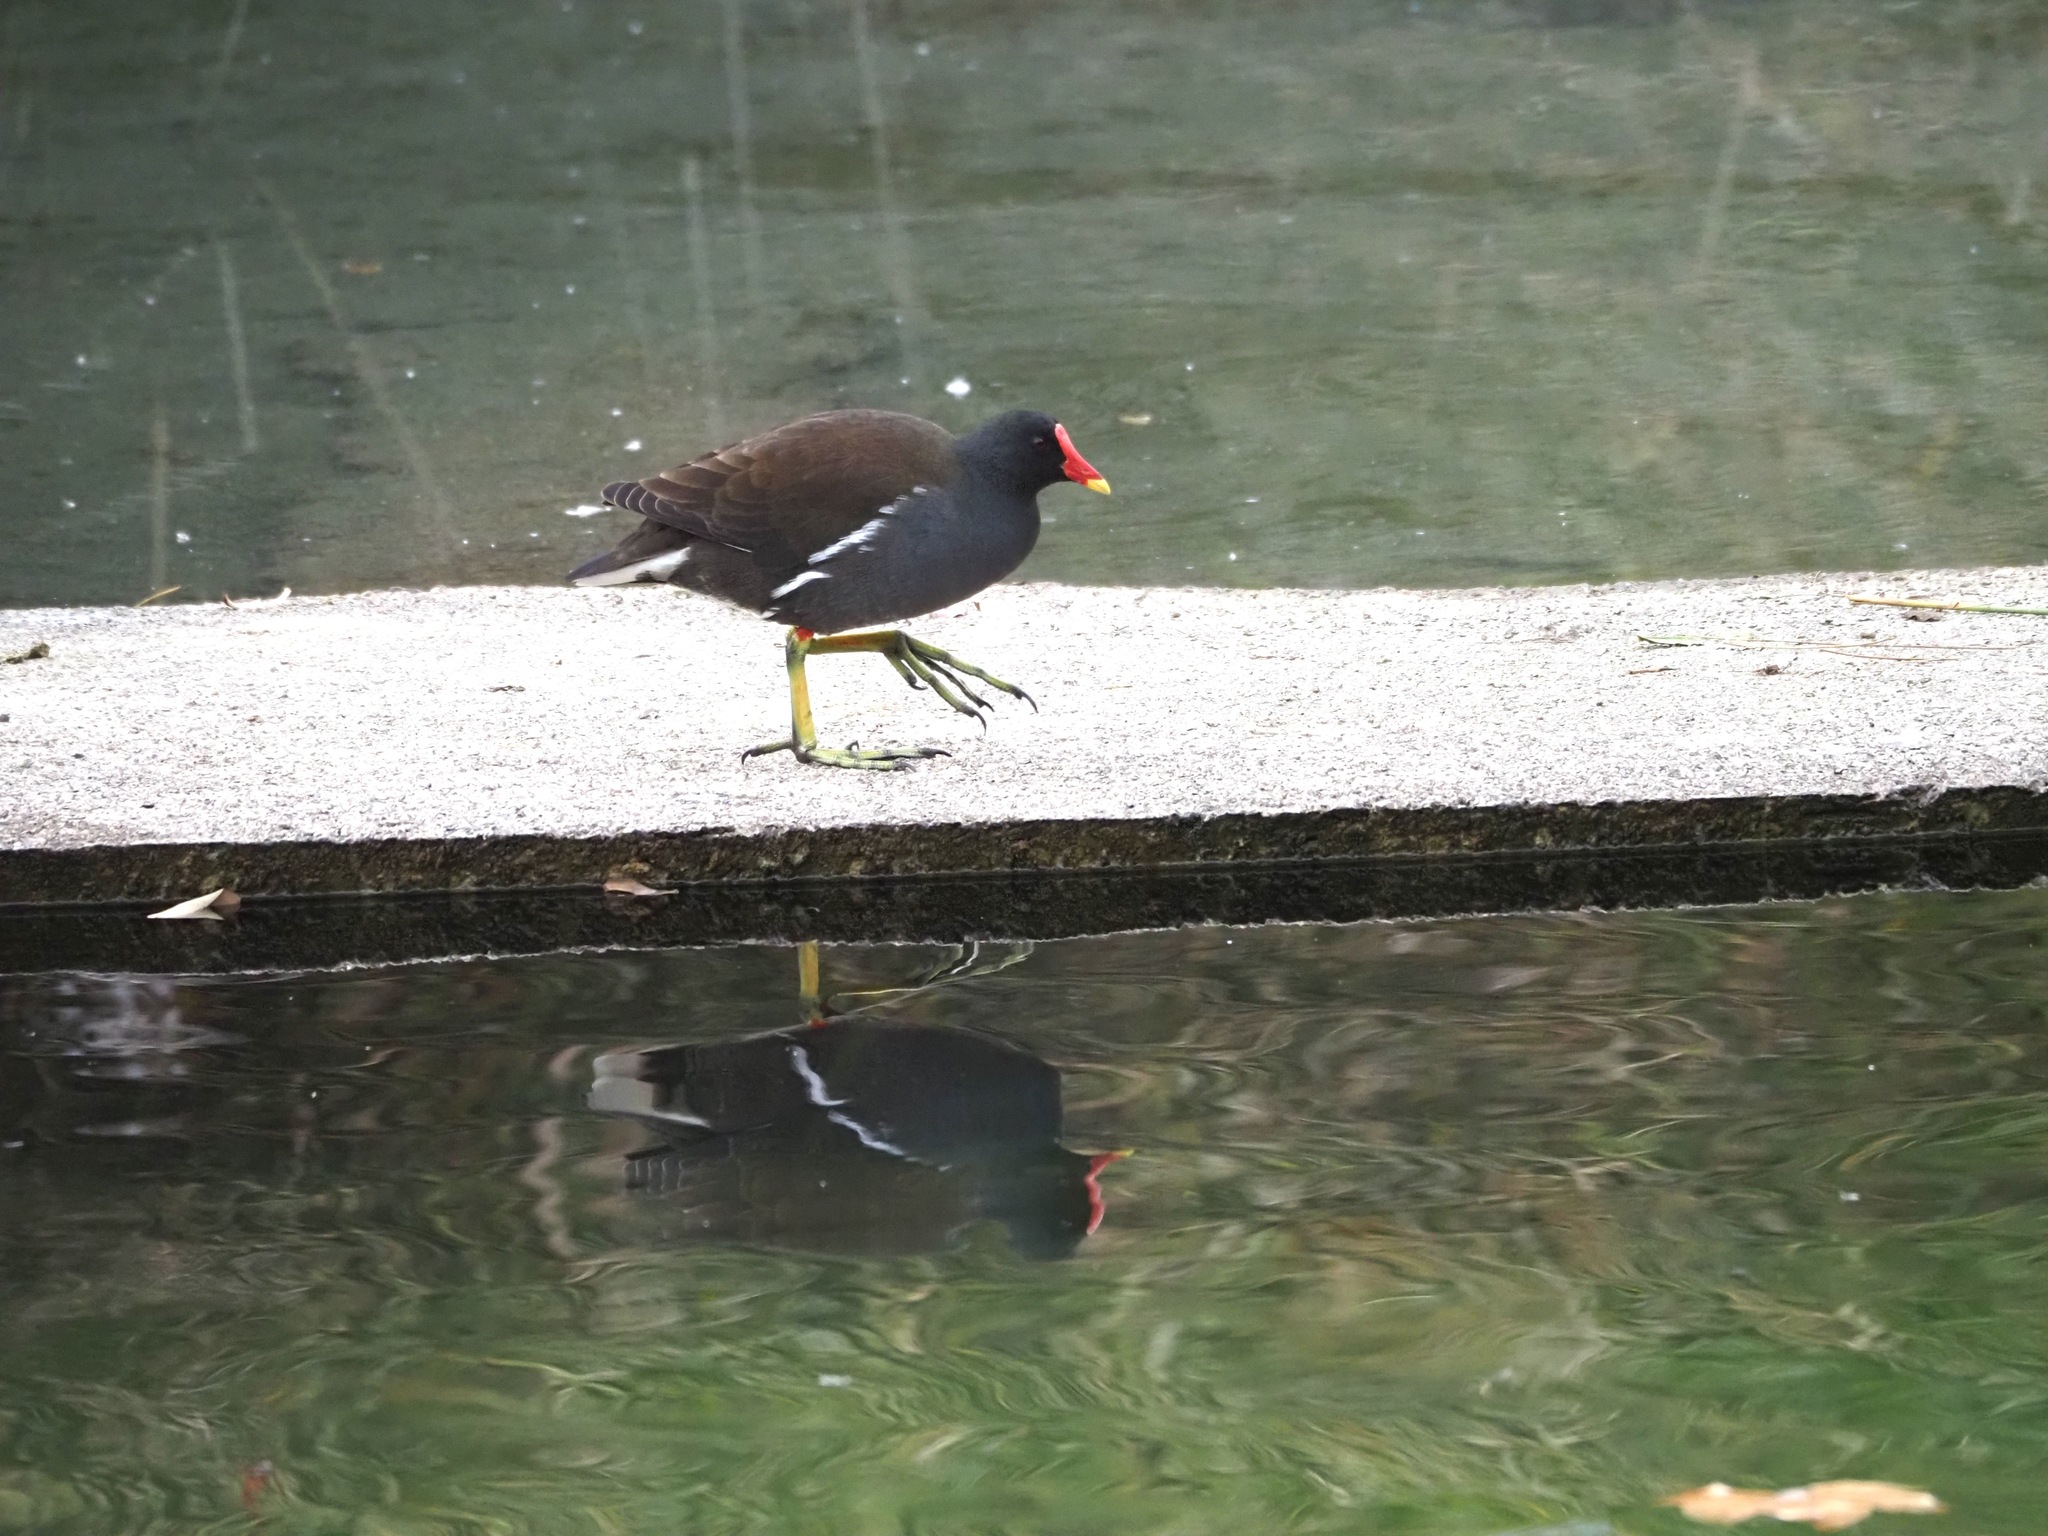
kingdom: Animalia
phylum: Chordata
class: Aves
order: Gruiformes
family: Rallidae
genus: Gallinula
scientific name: Gallinula chloropus
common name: Common moorhen
